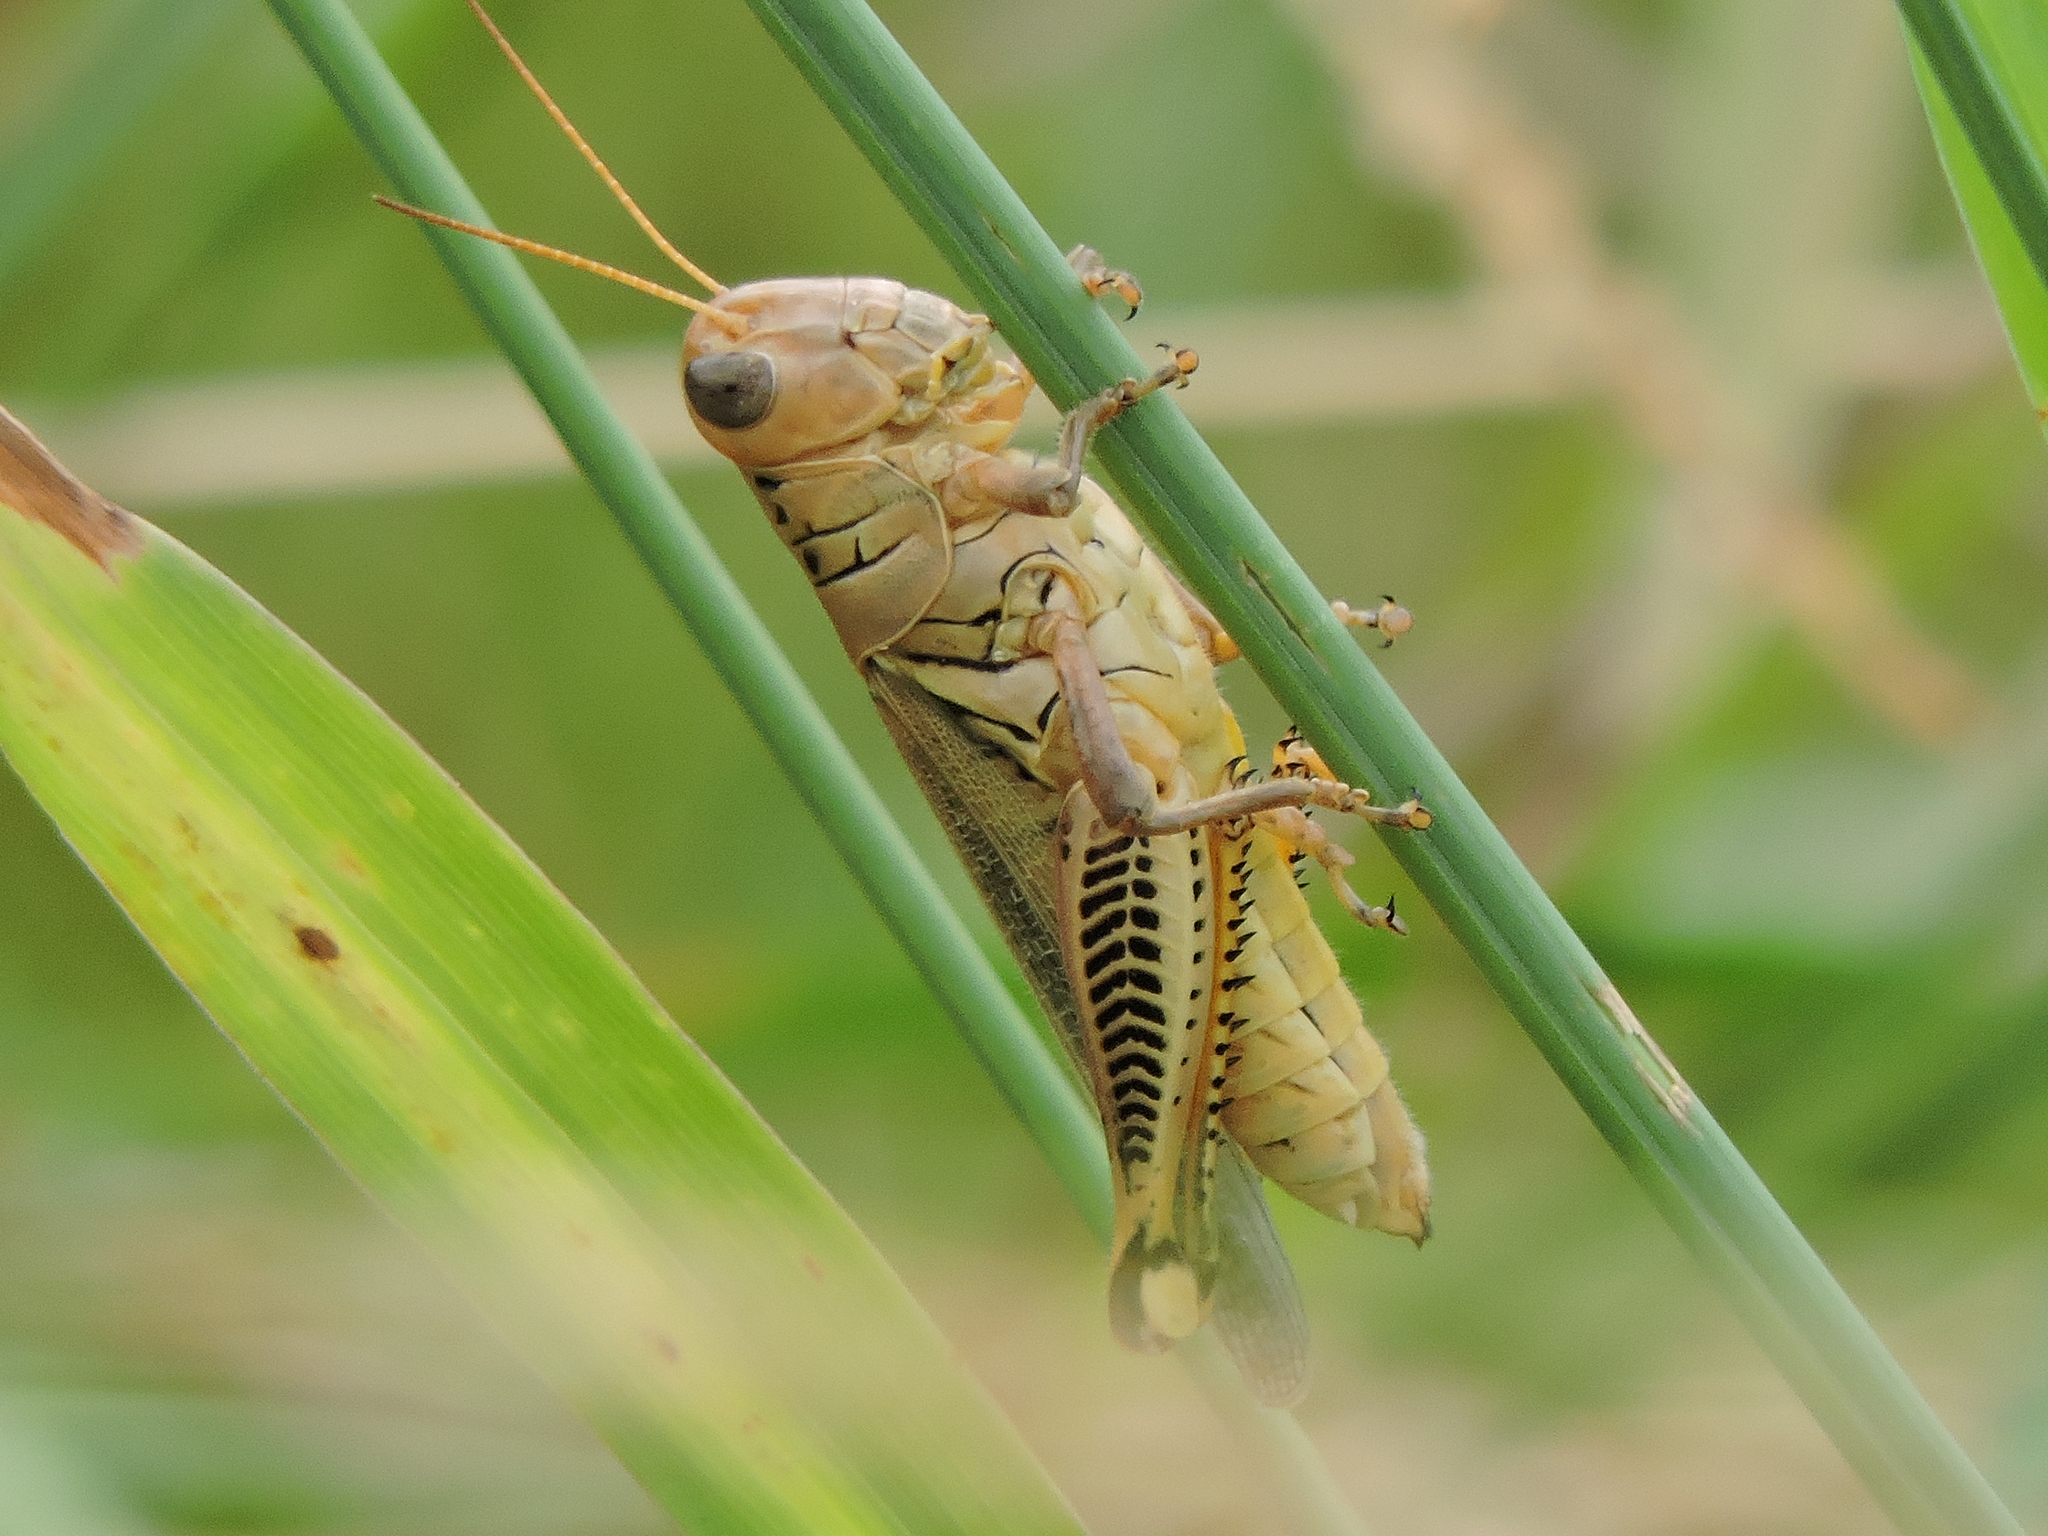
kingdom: Animalia
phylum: Arthropoda
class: Insecta
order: Orthoptera
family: Acrididae
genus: Melanoplus
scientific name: Melanoplus differentialis
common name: Differential grasshopper
